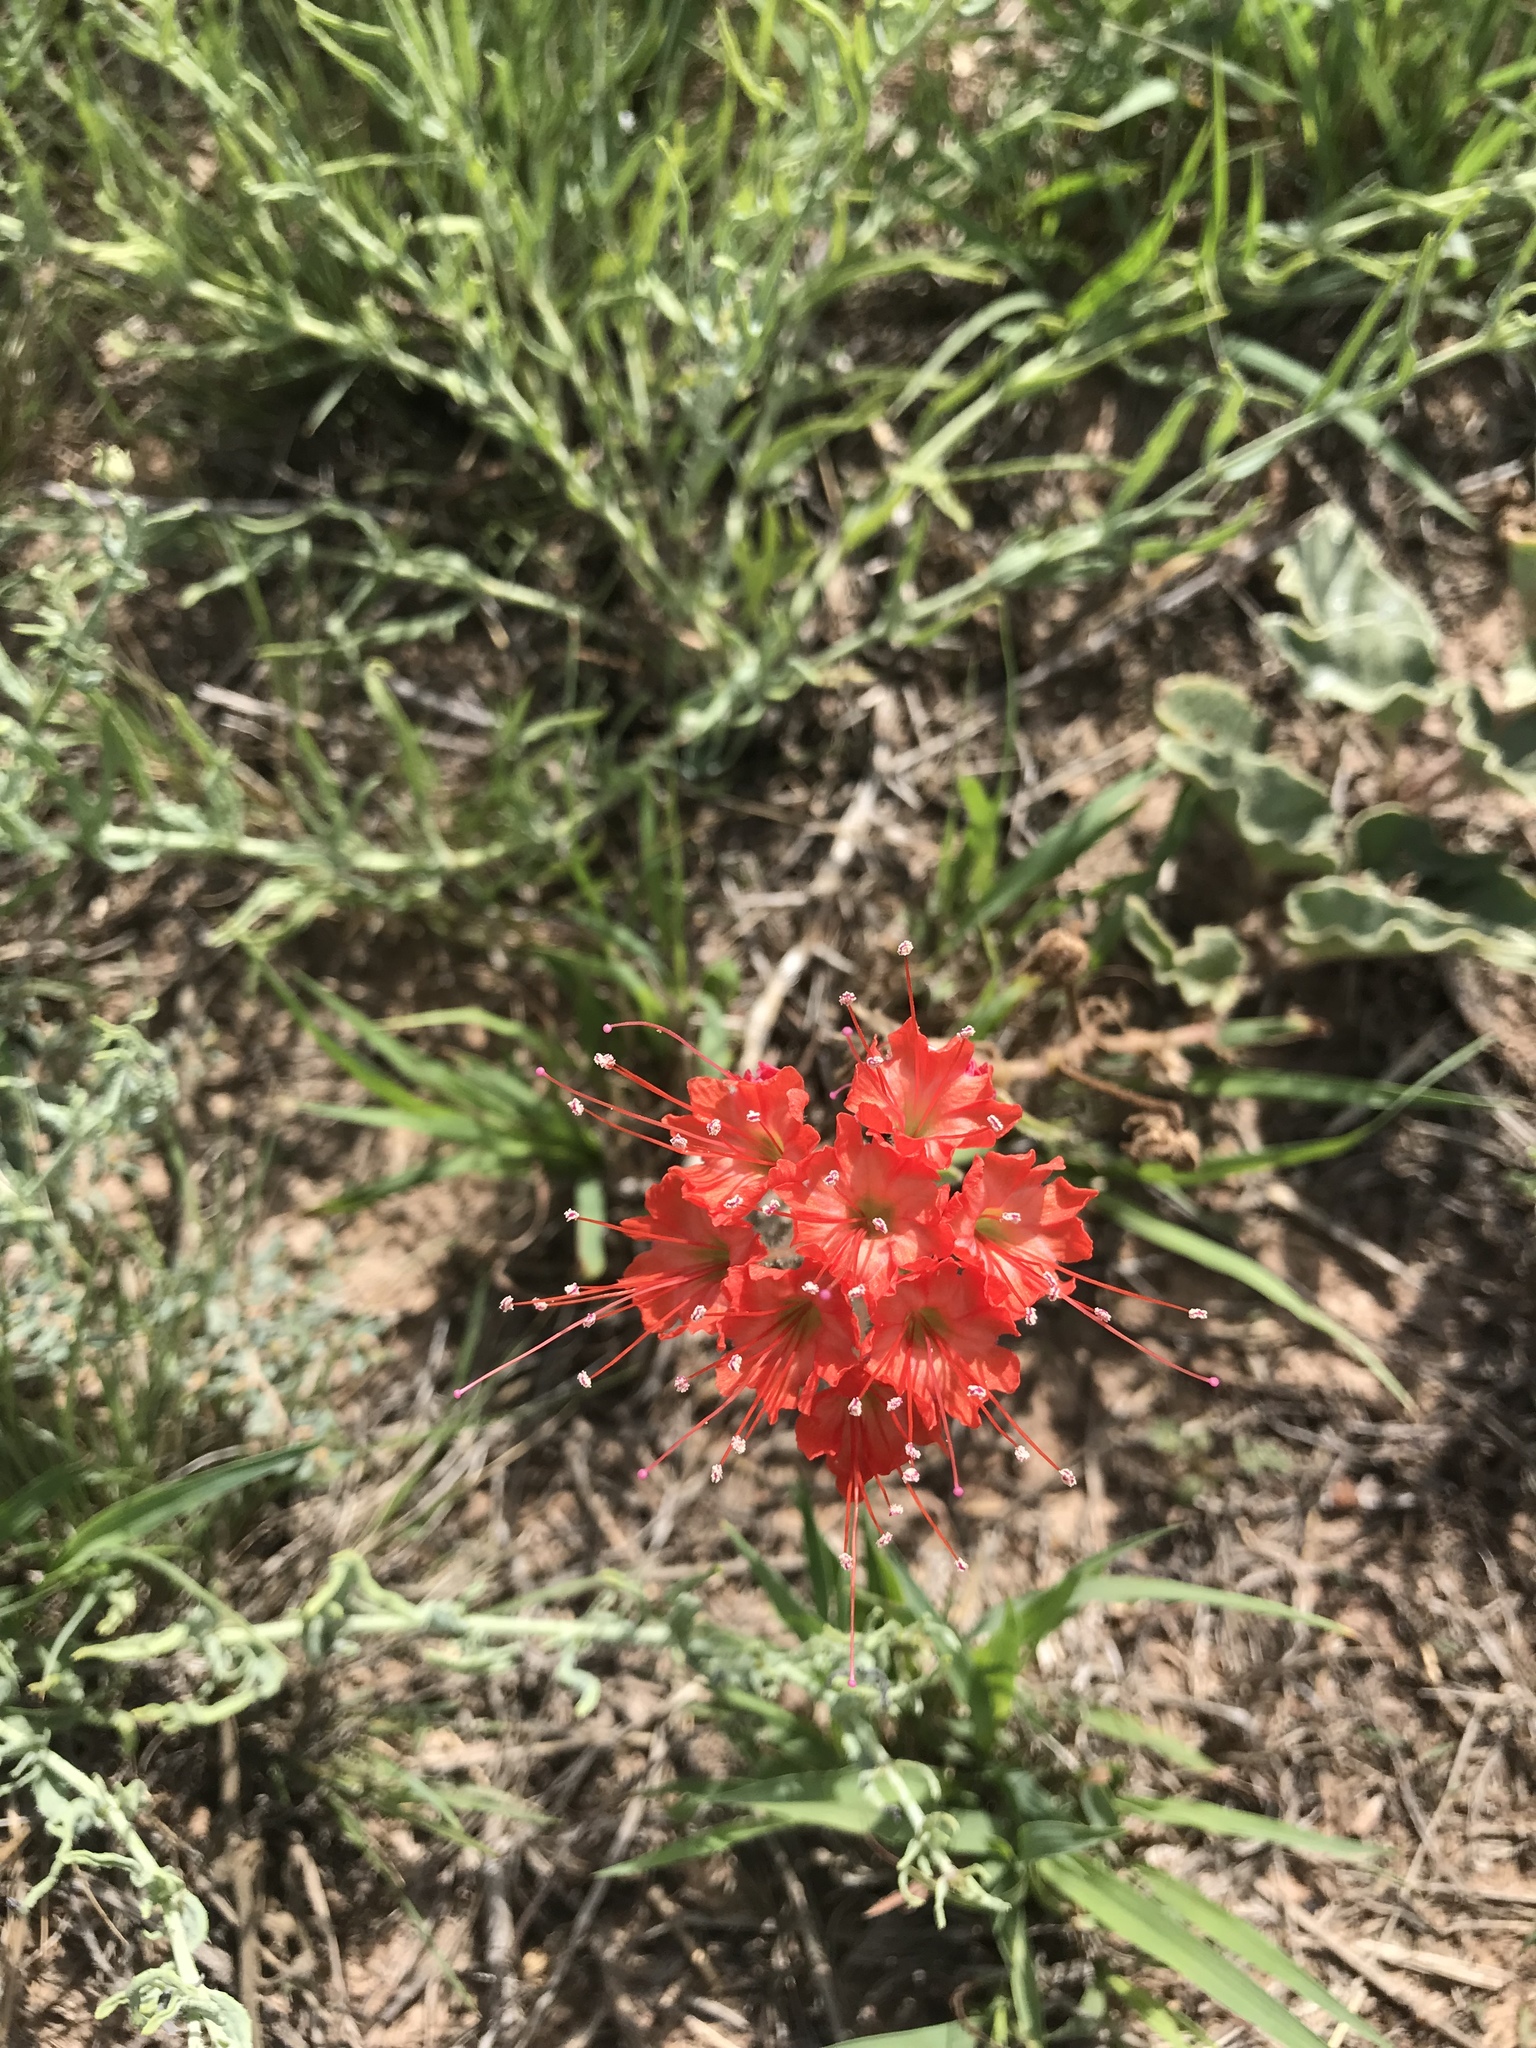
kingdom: Plantae
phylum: Tracheophyta
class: Magnoliopsida
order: Caryophyllales
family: Nyctaginaceae
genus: Nyctaginia
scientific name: Nyctaginia capitata
